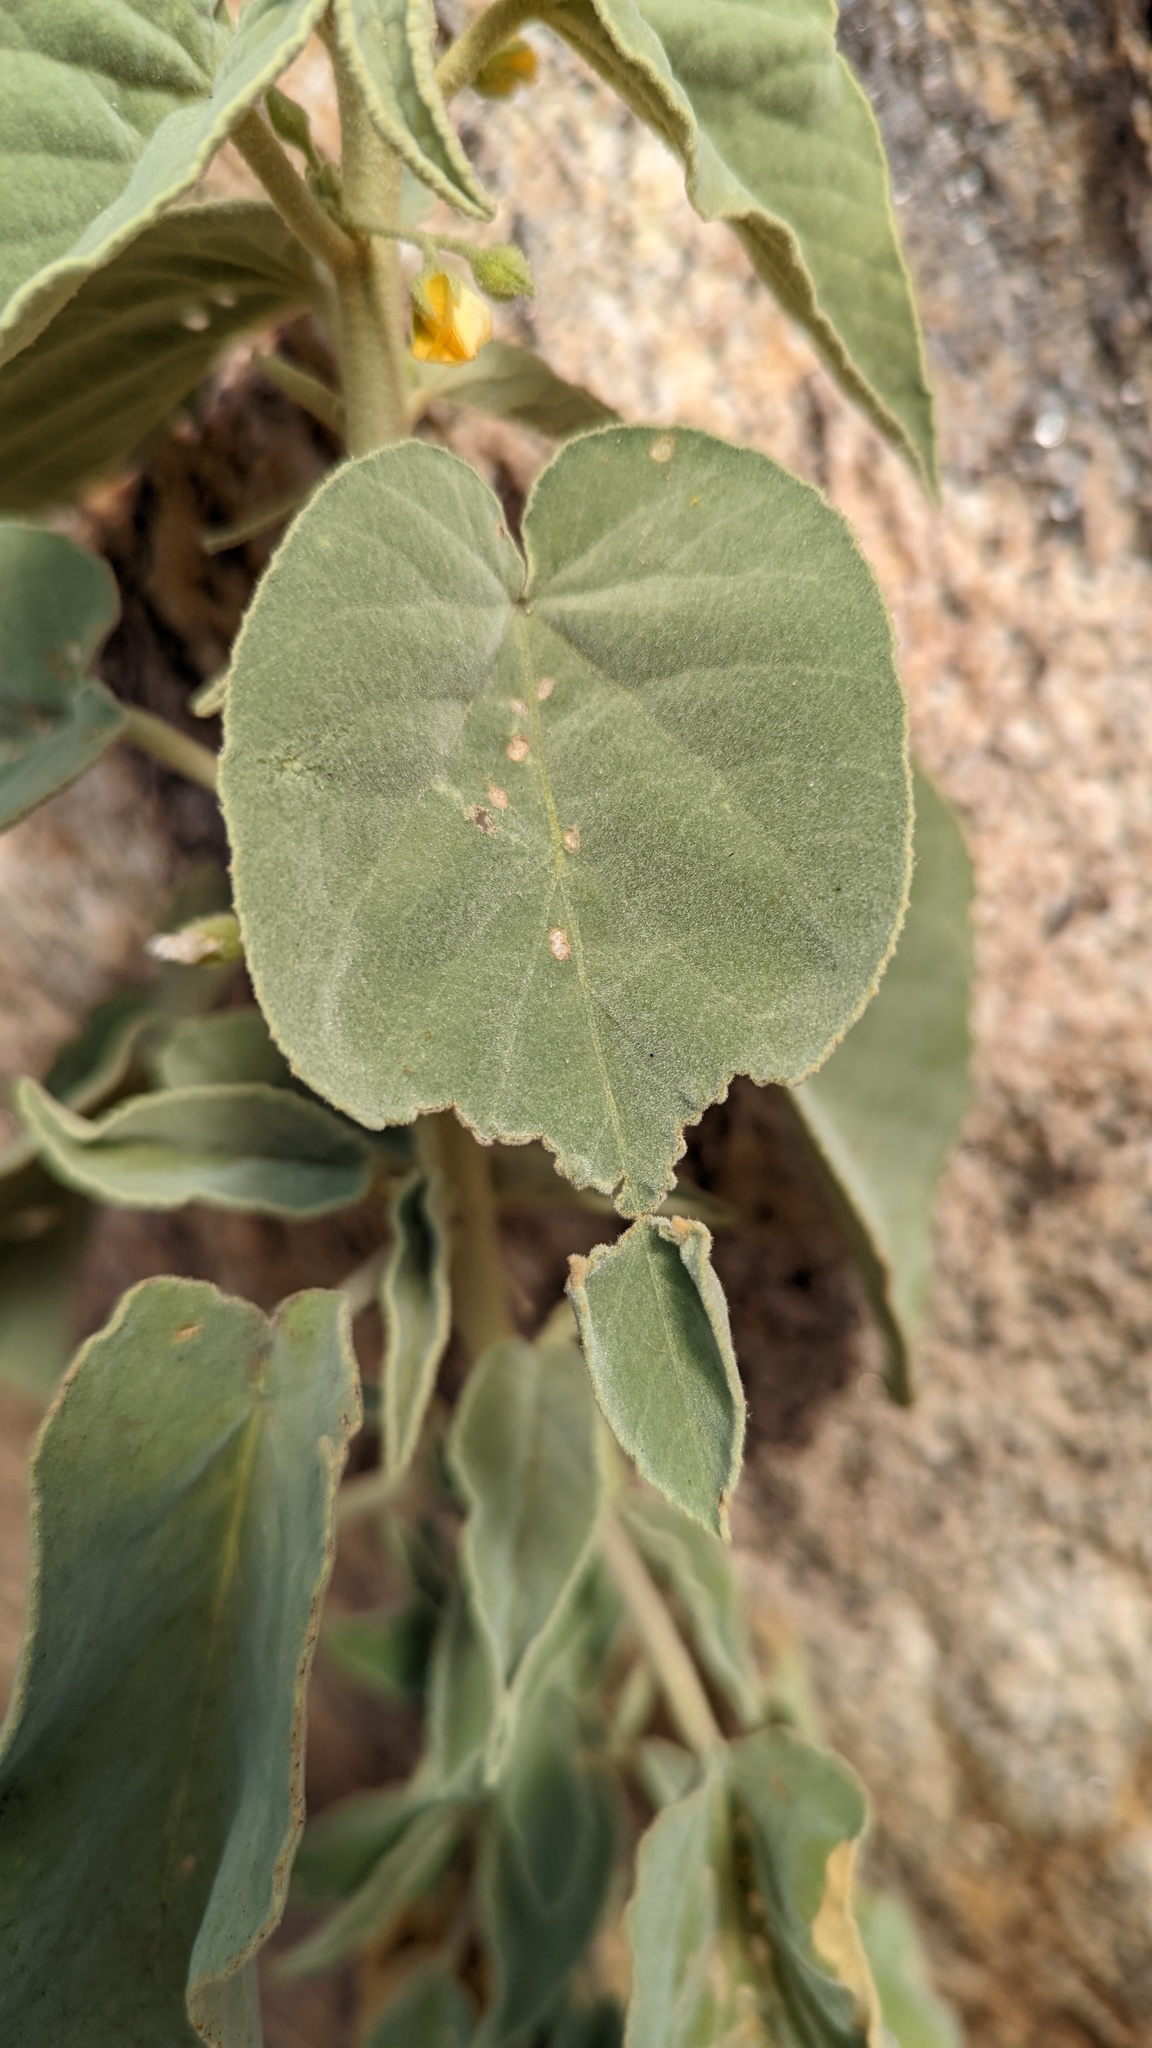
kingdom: Plantae
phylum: Tracheophyta
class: Magnoliopsida
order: Malvales
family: Malvaceae
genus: Horsfordia
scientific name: Horsfordia newberryi
